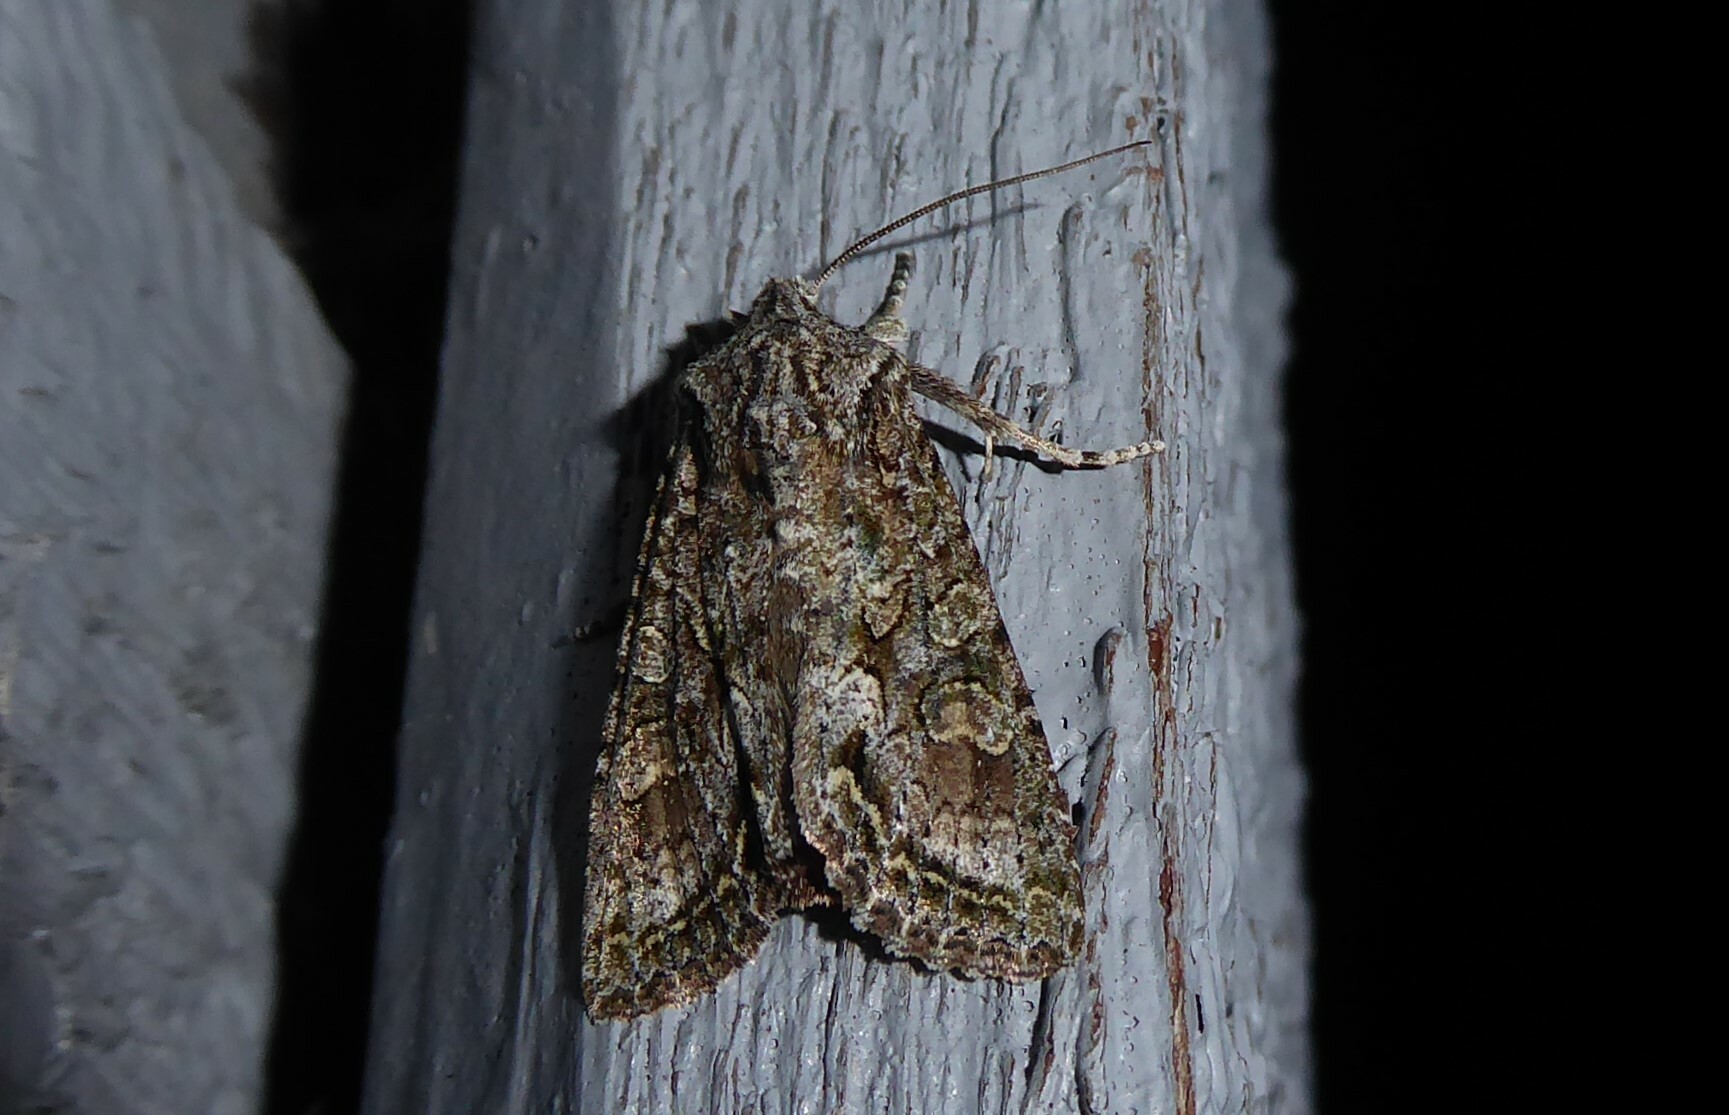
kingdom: Animalia
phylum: Arthropoda
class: Insecta
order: Lepidoptera
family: Noctuidae
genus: Ichneutica
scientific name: Ichneutica mutans
